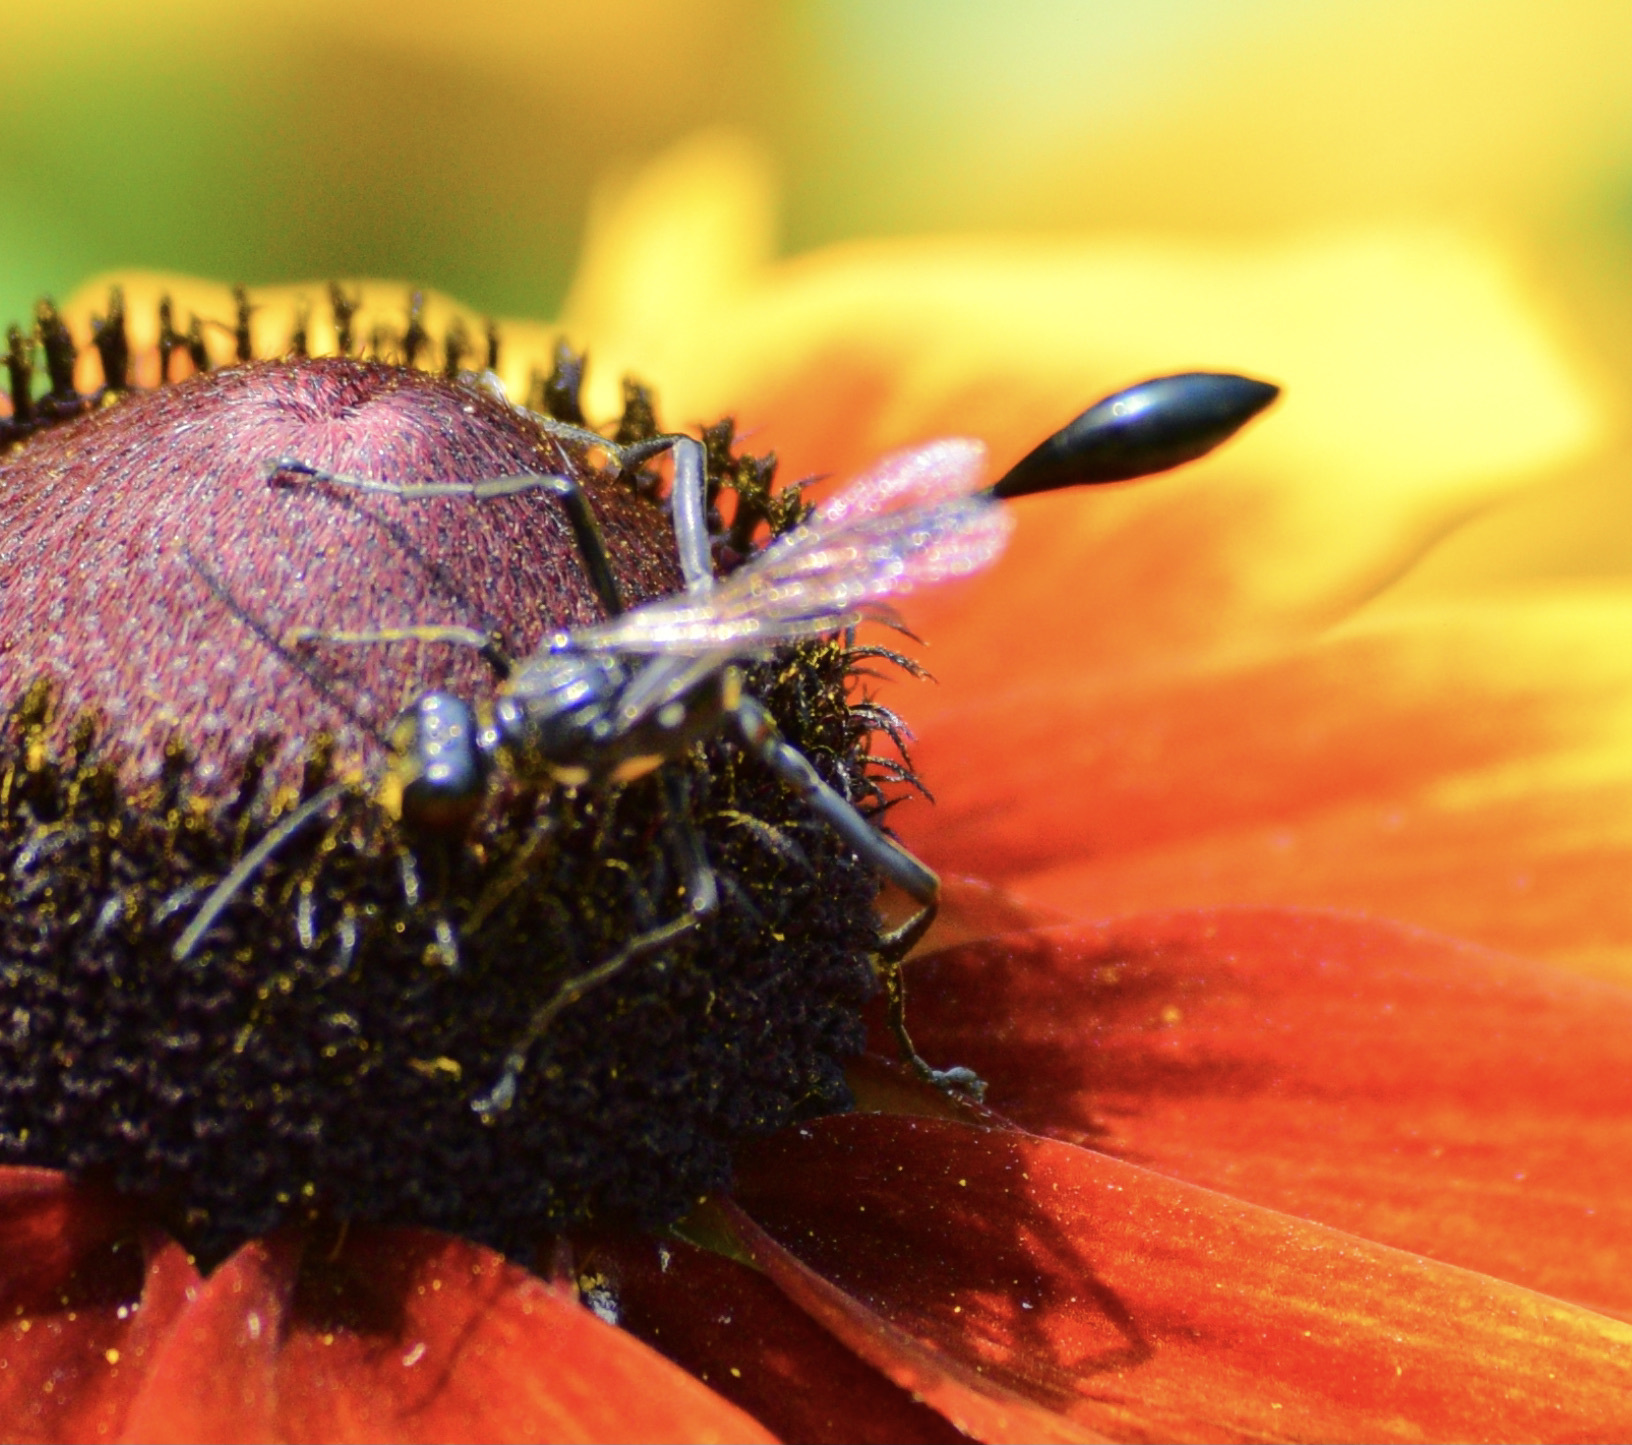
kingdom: Animalia
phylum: Arthropoda
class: Insecta
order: Hymenoptera
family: Sphecidae
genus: Eremnophila
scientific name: Eremnophila aureonotata
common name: Gold-marked thread-waisted wasp
